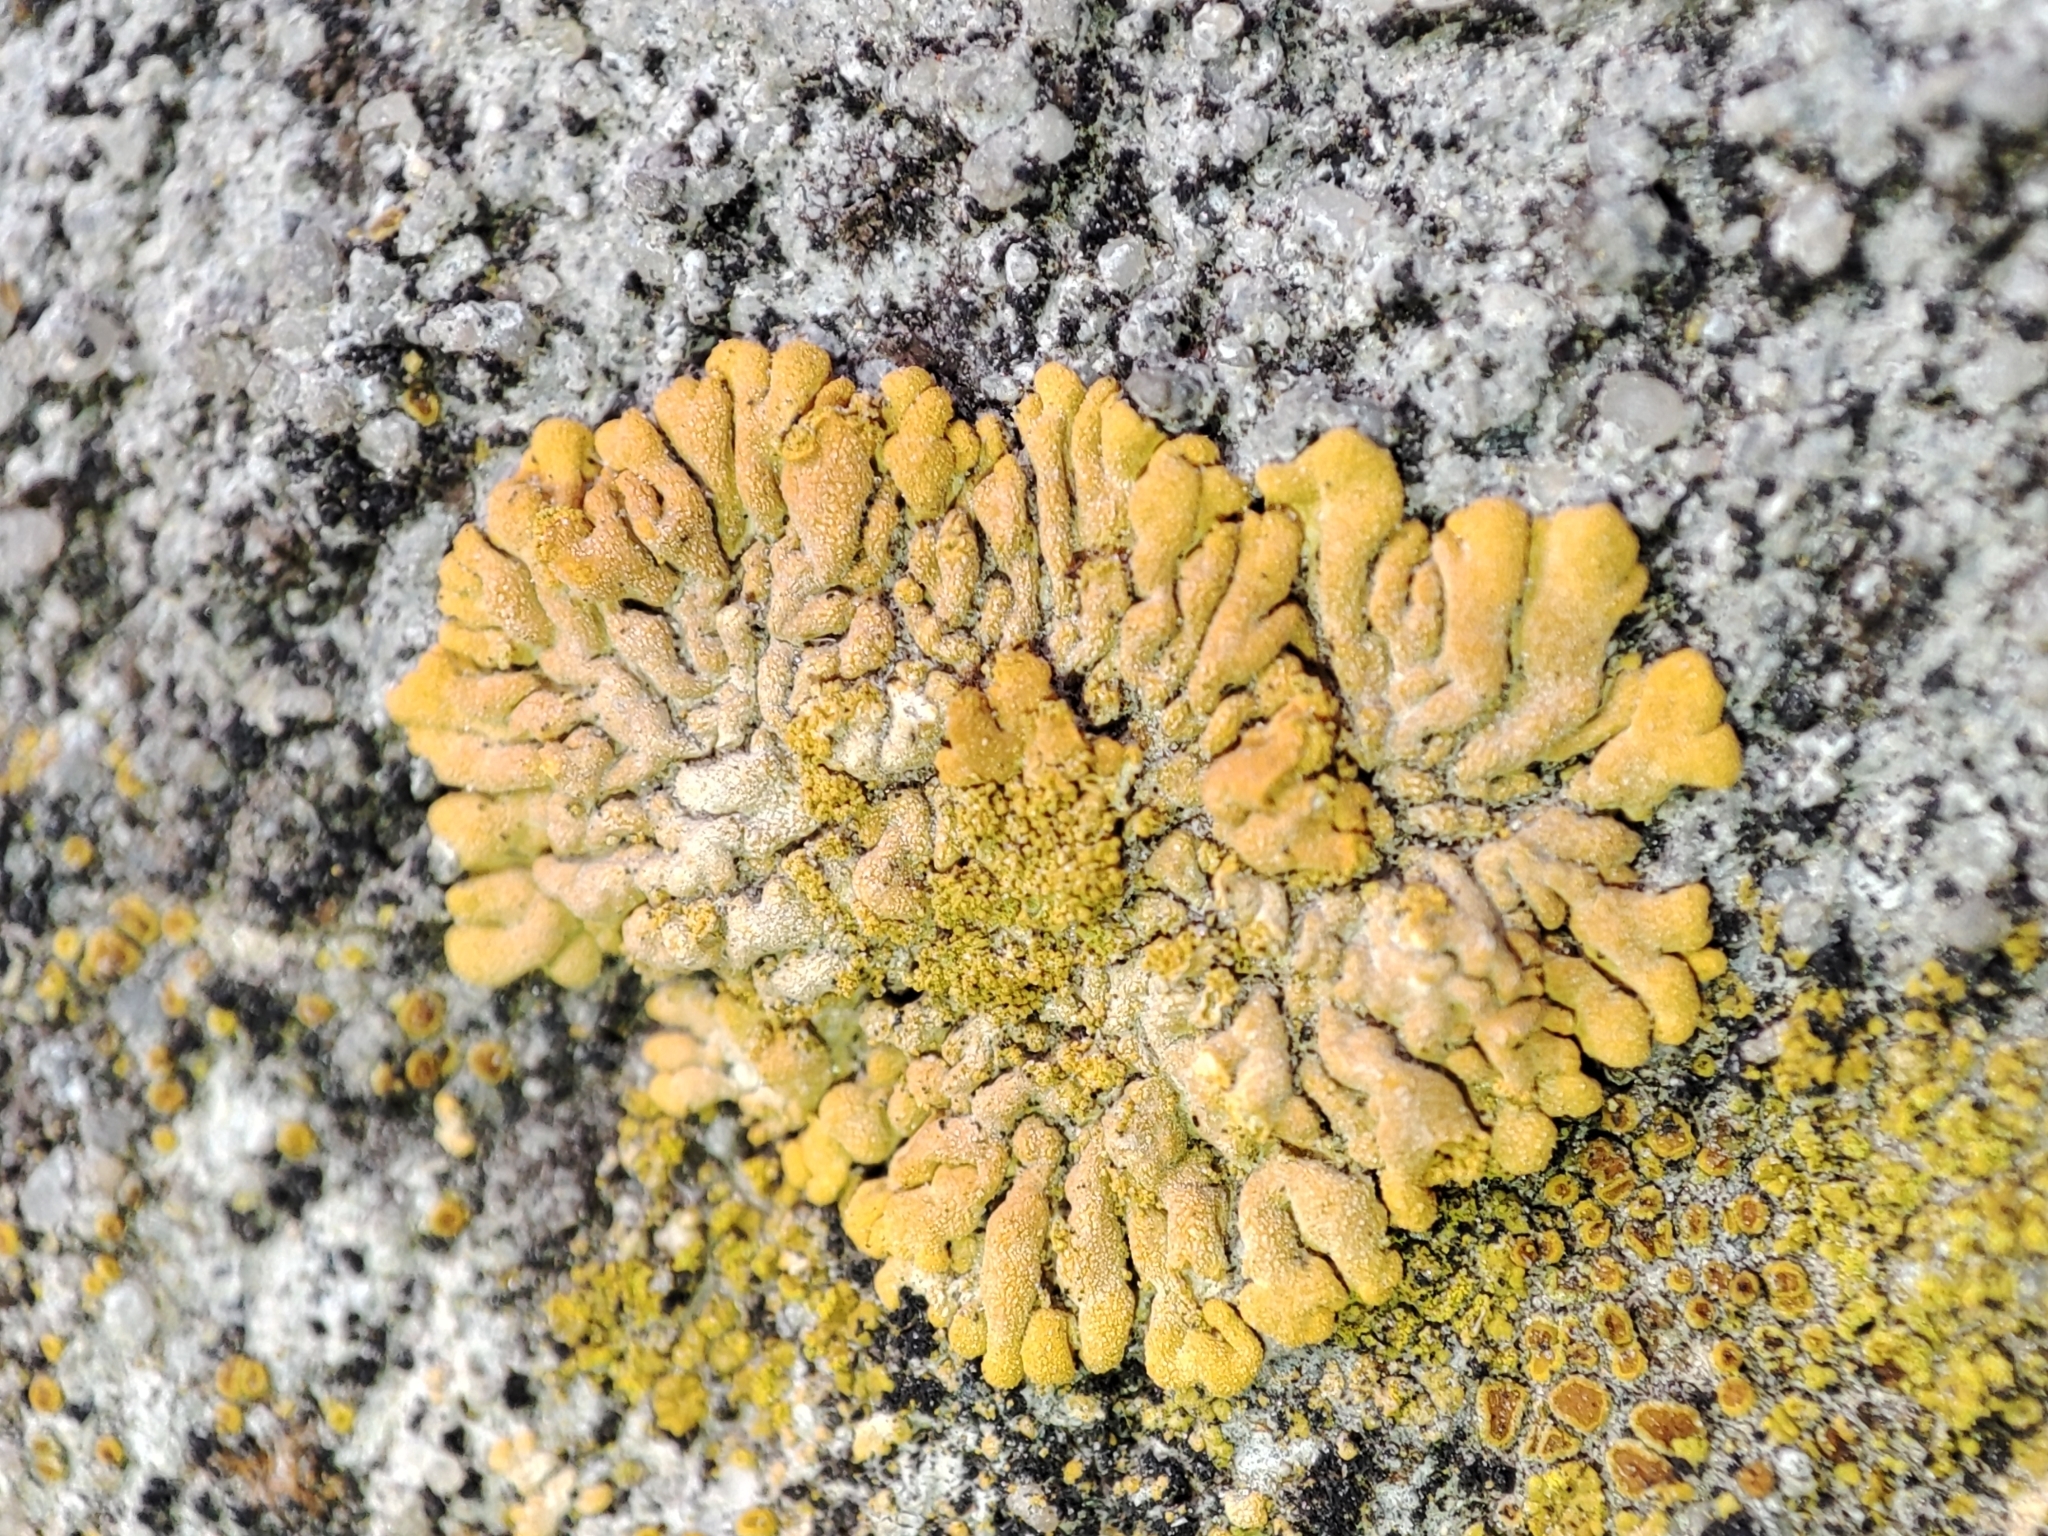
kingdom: Fungi
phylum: Ascomycota
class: Lecanoromycetes
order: Teloschistales
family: Teloschistaceae
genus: Calogaya
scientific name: Calogaya decipiens
